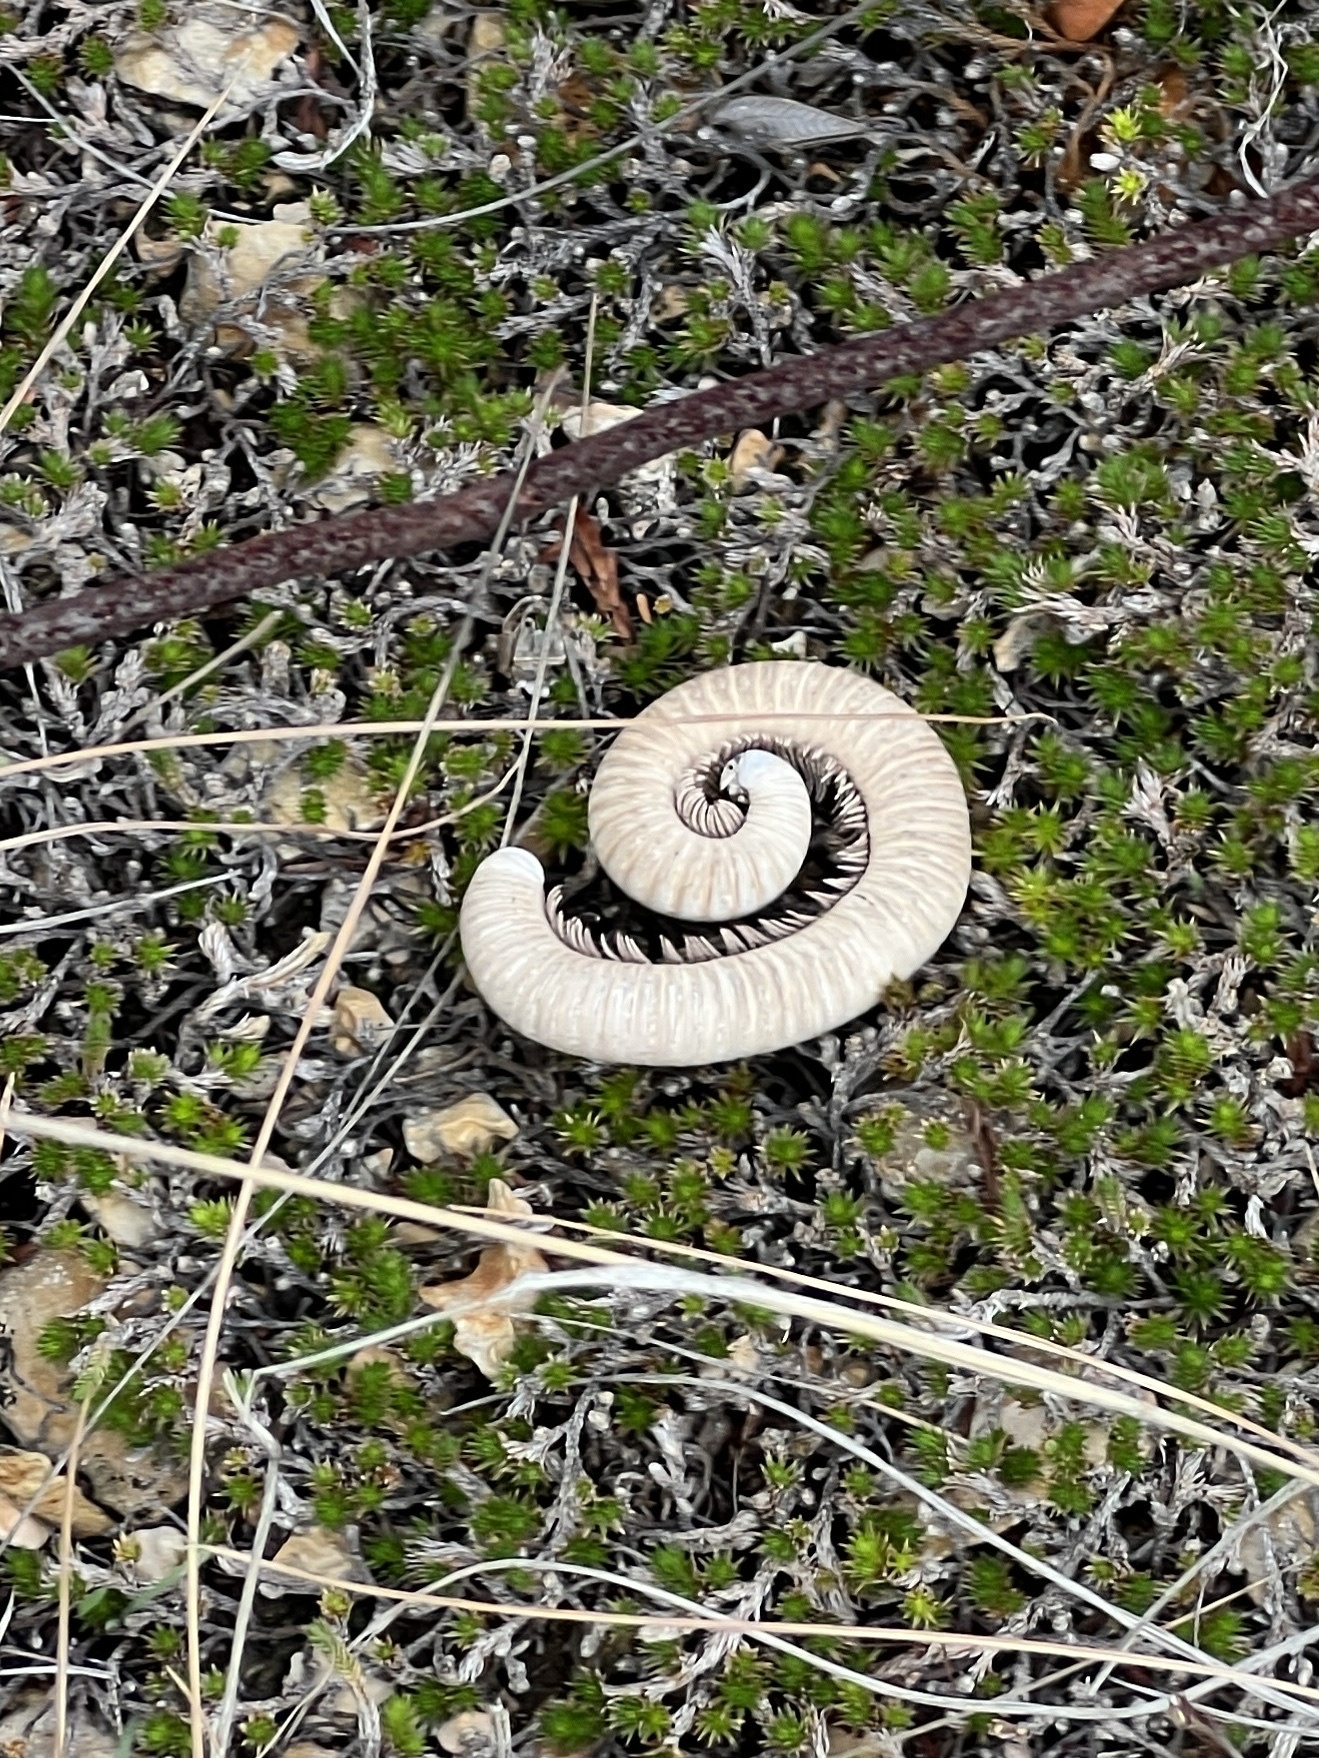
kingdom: Animalia
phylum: Arthropoda
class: Diplopoda
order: Spirostreptida
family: Spirostreptidae
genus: Orthoporus
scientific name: Orthoporus ornatus
